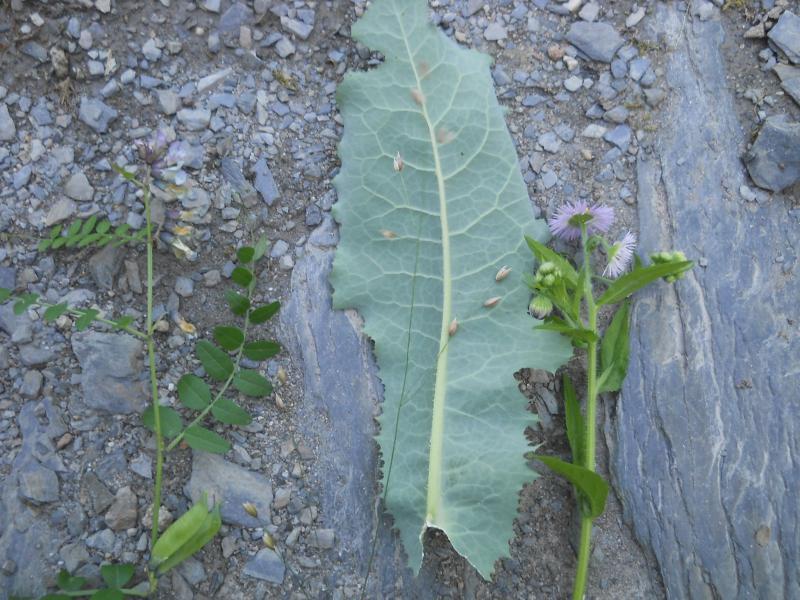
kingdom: Plantae
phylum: Tracheophyta
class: Magnoliopsida
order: Asterales
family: Asteraceae
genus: Lactuca
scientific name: Lactuca virosa
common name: Great lettuce
